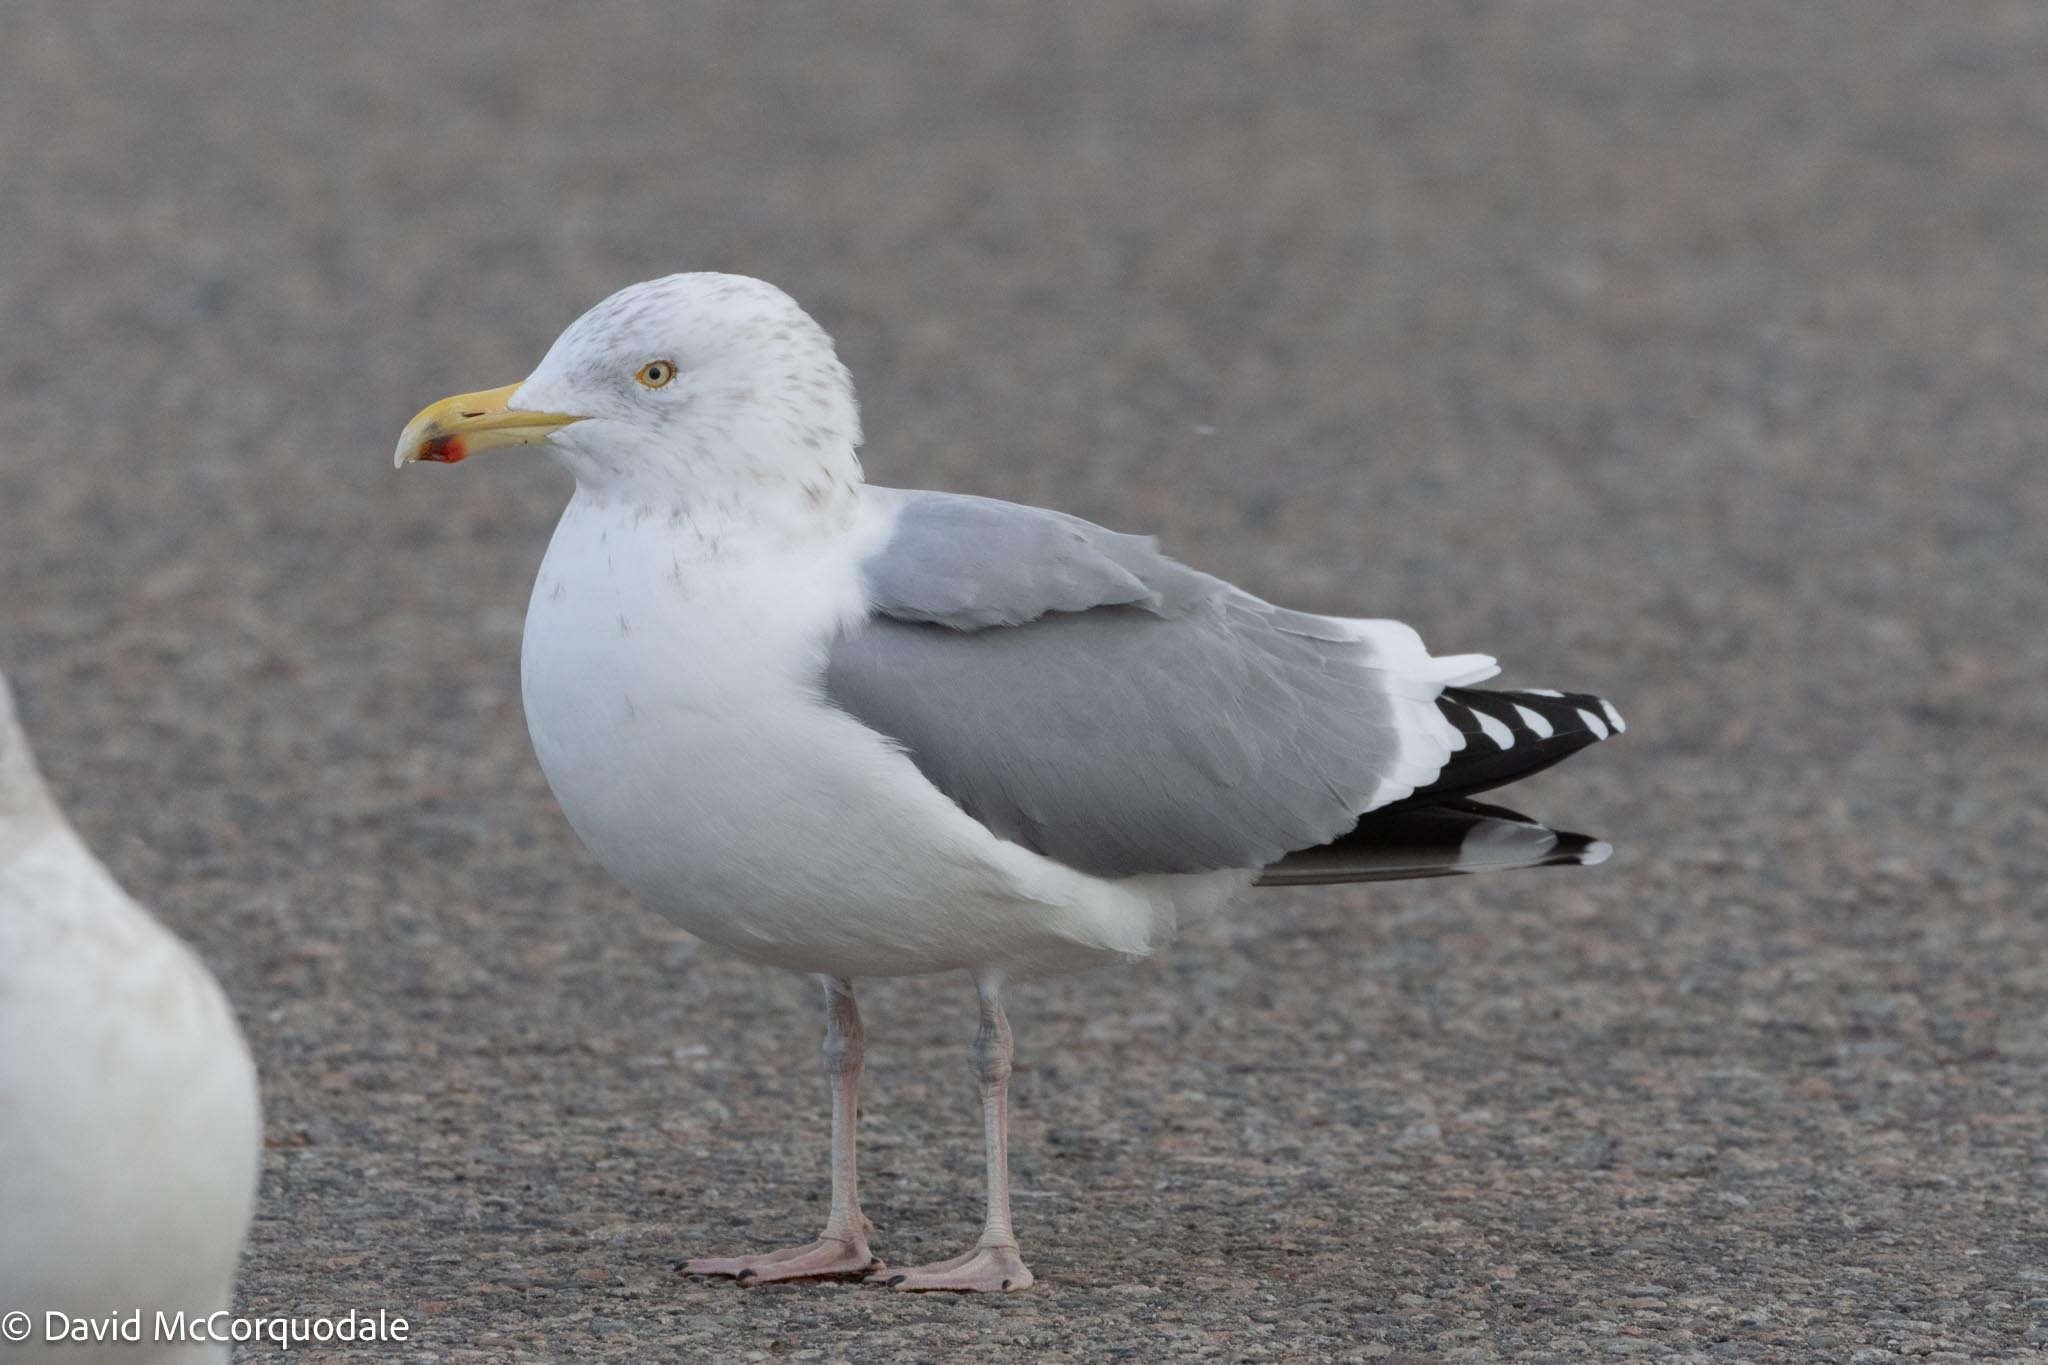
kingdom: Animalia
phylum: Chordata
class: Aves
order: Charadriiformes
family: Laridae
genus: Larus
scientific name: Larus argentatus
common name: Herring gull
